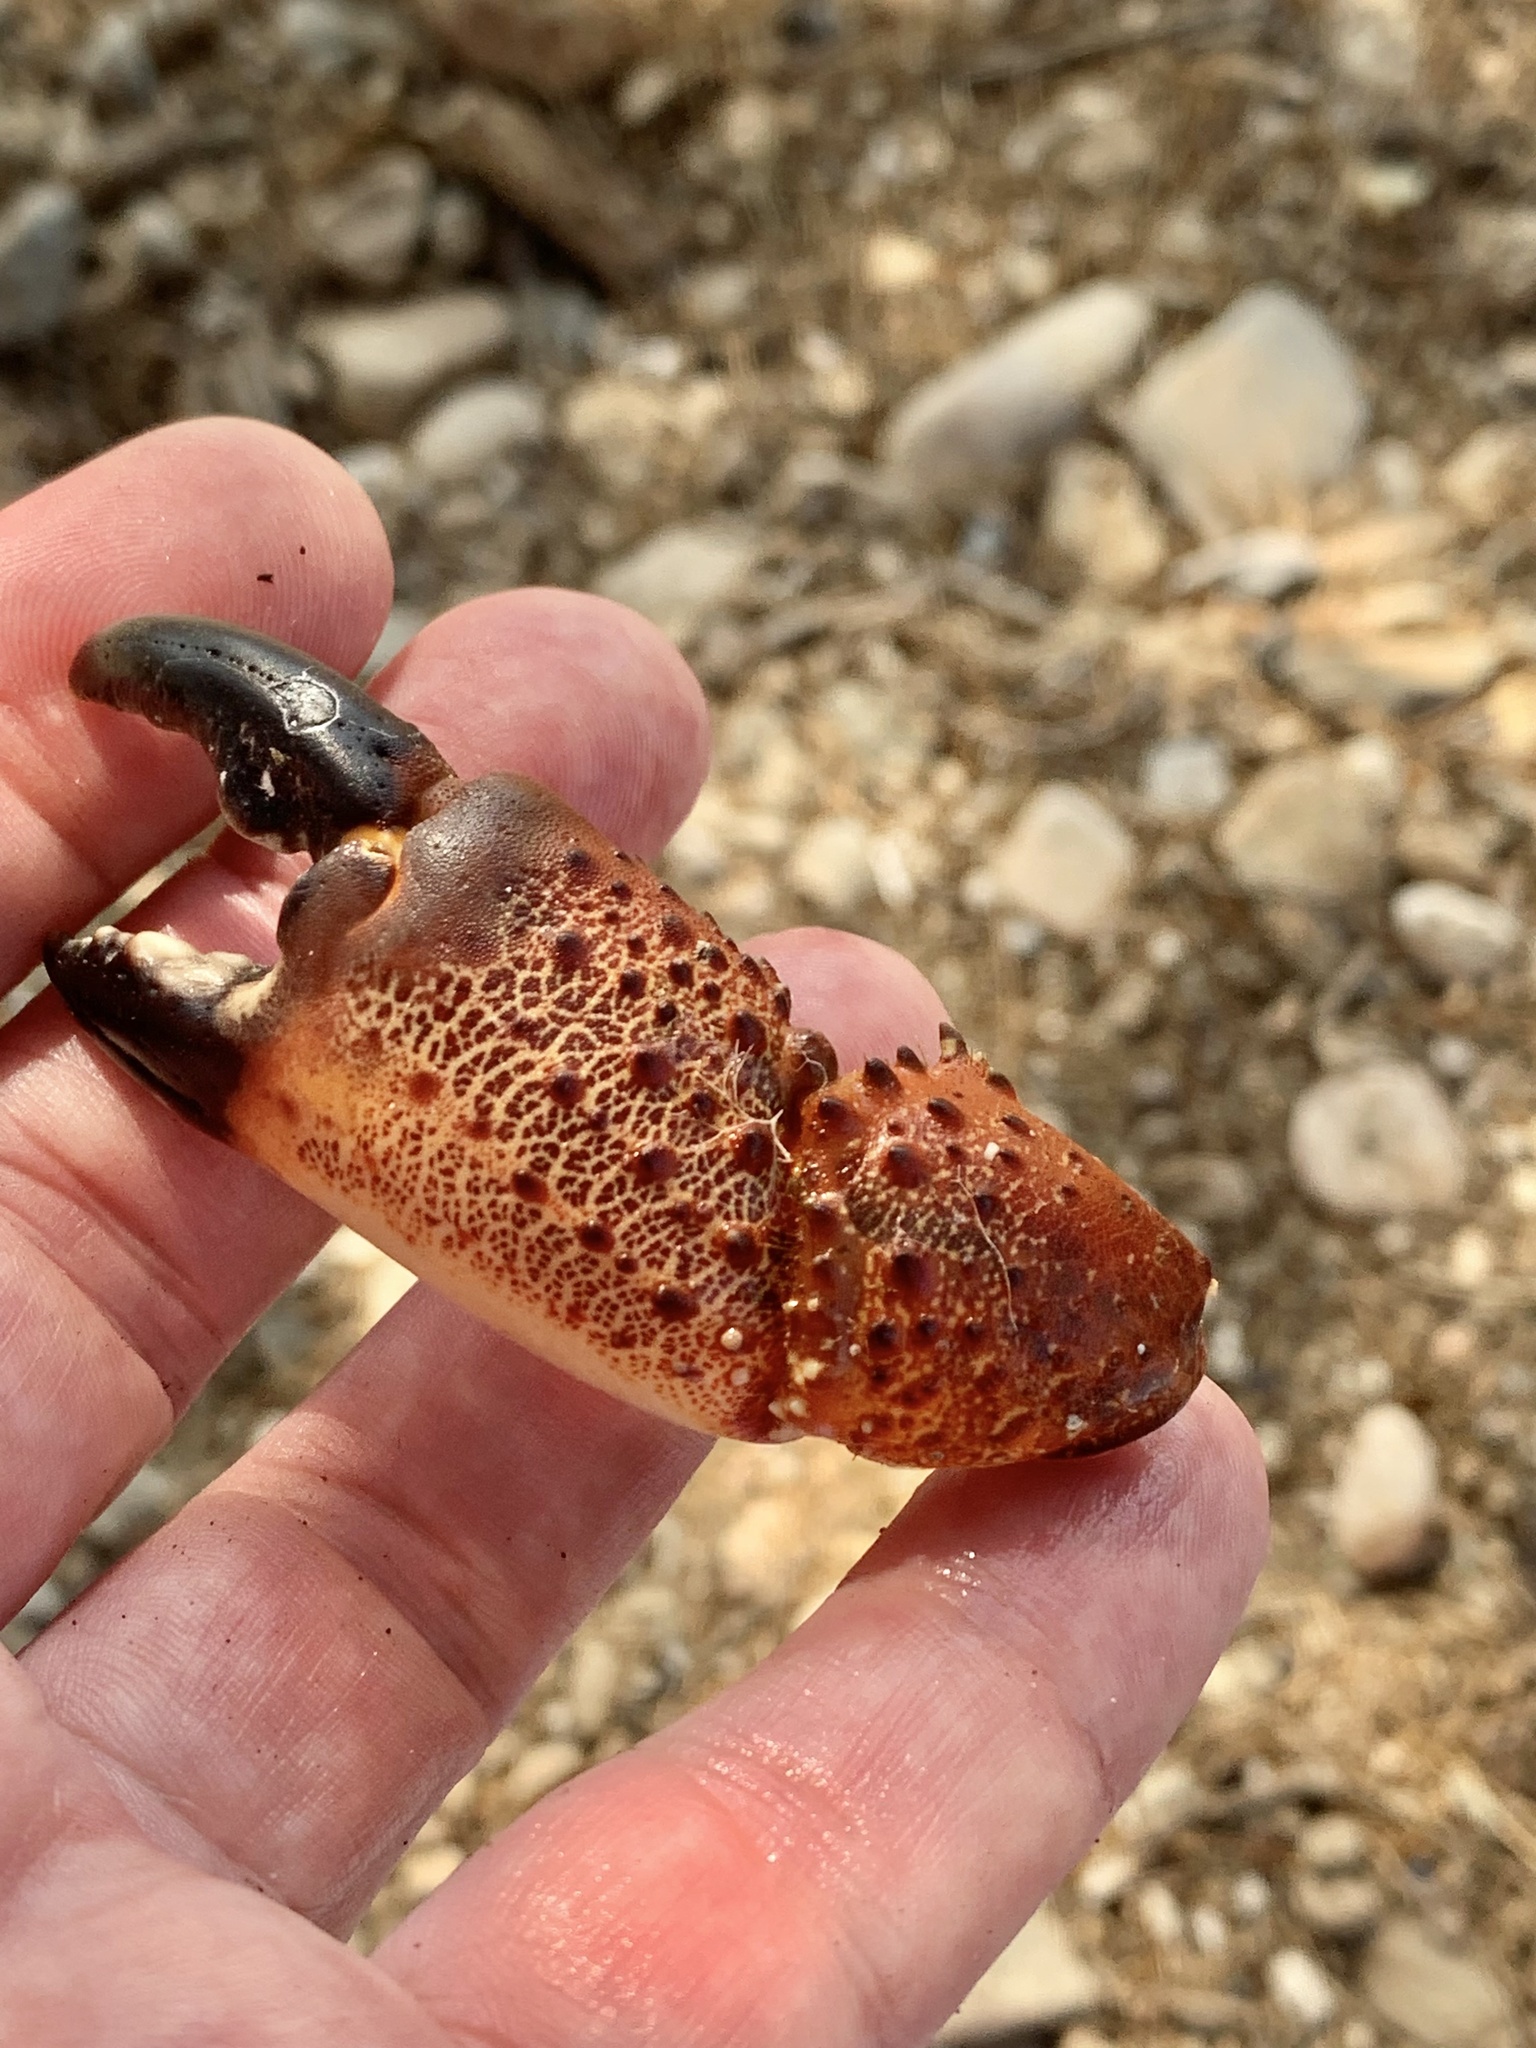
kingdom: Animalia
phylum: Arthropoda
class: Malacostraca
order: Decapoda
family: Eriphiidae
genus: Eriphia
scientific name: Eriphia verrucosa
